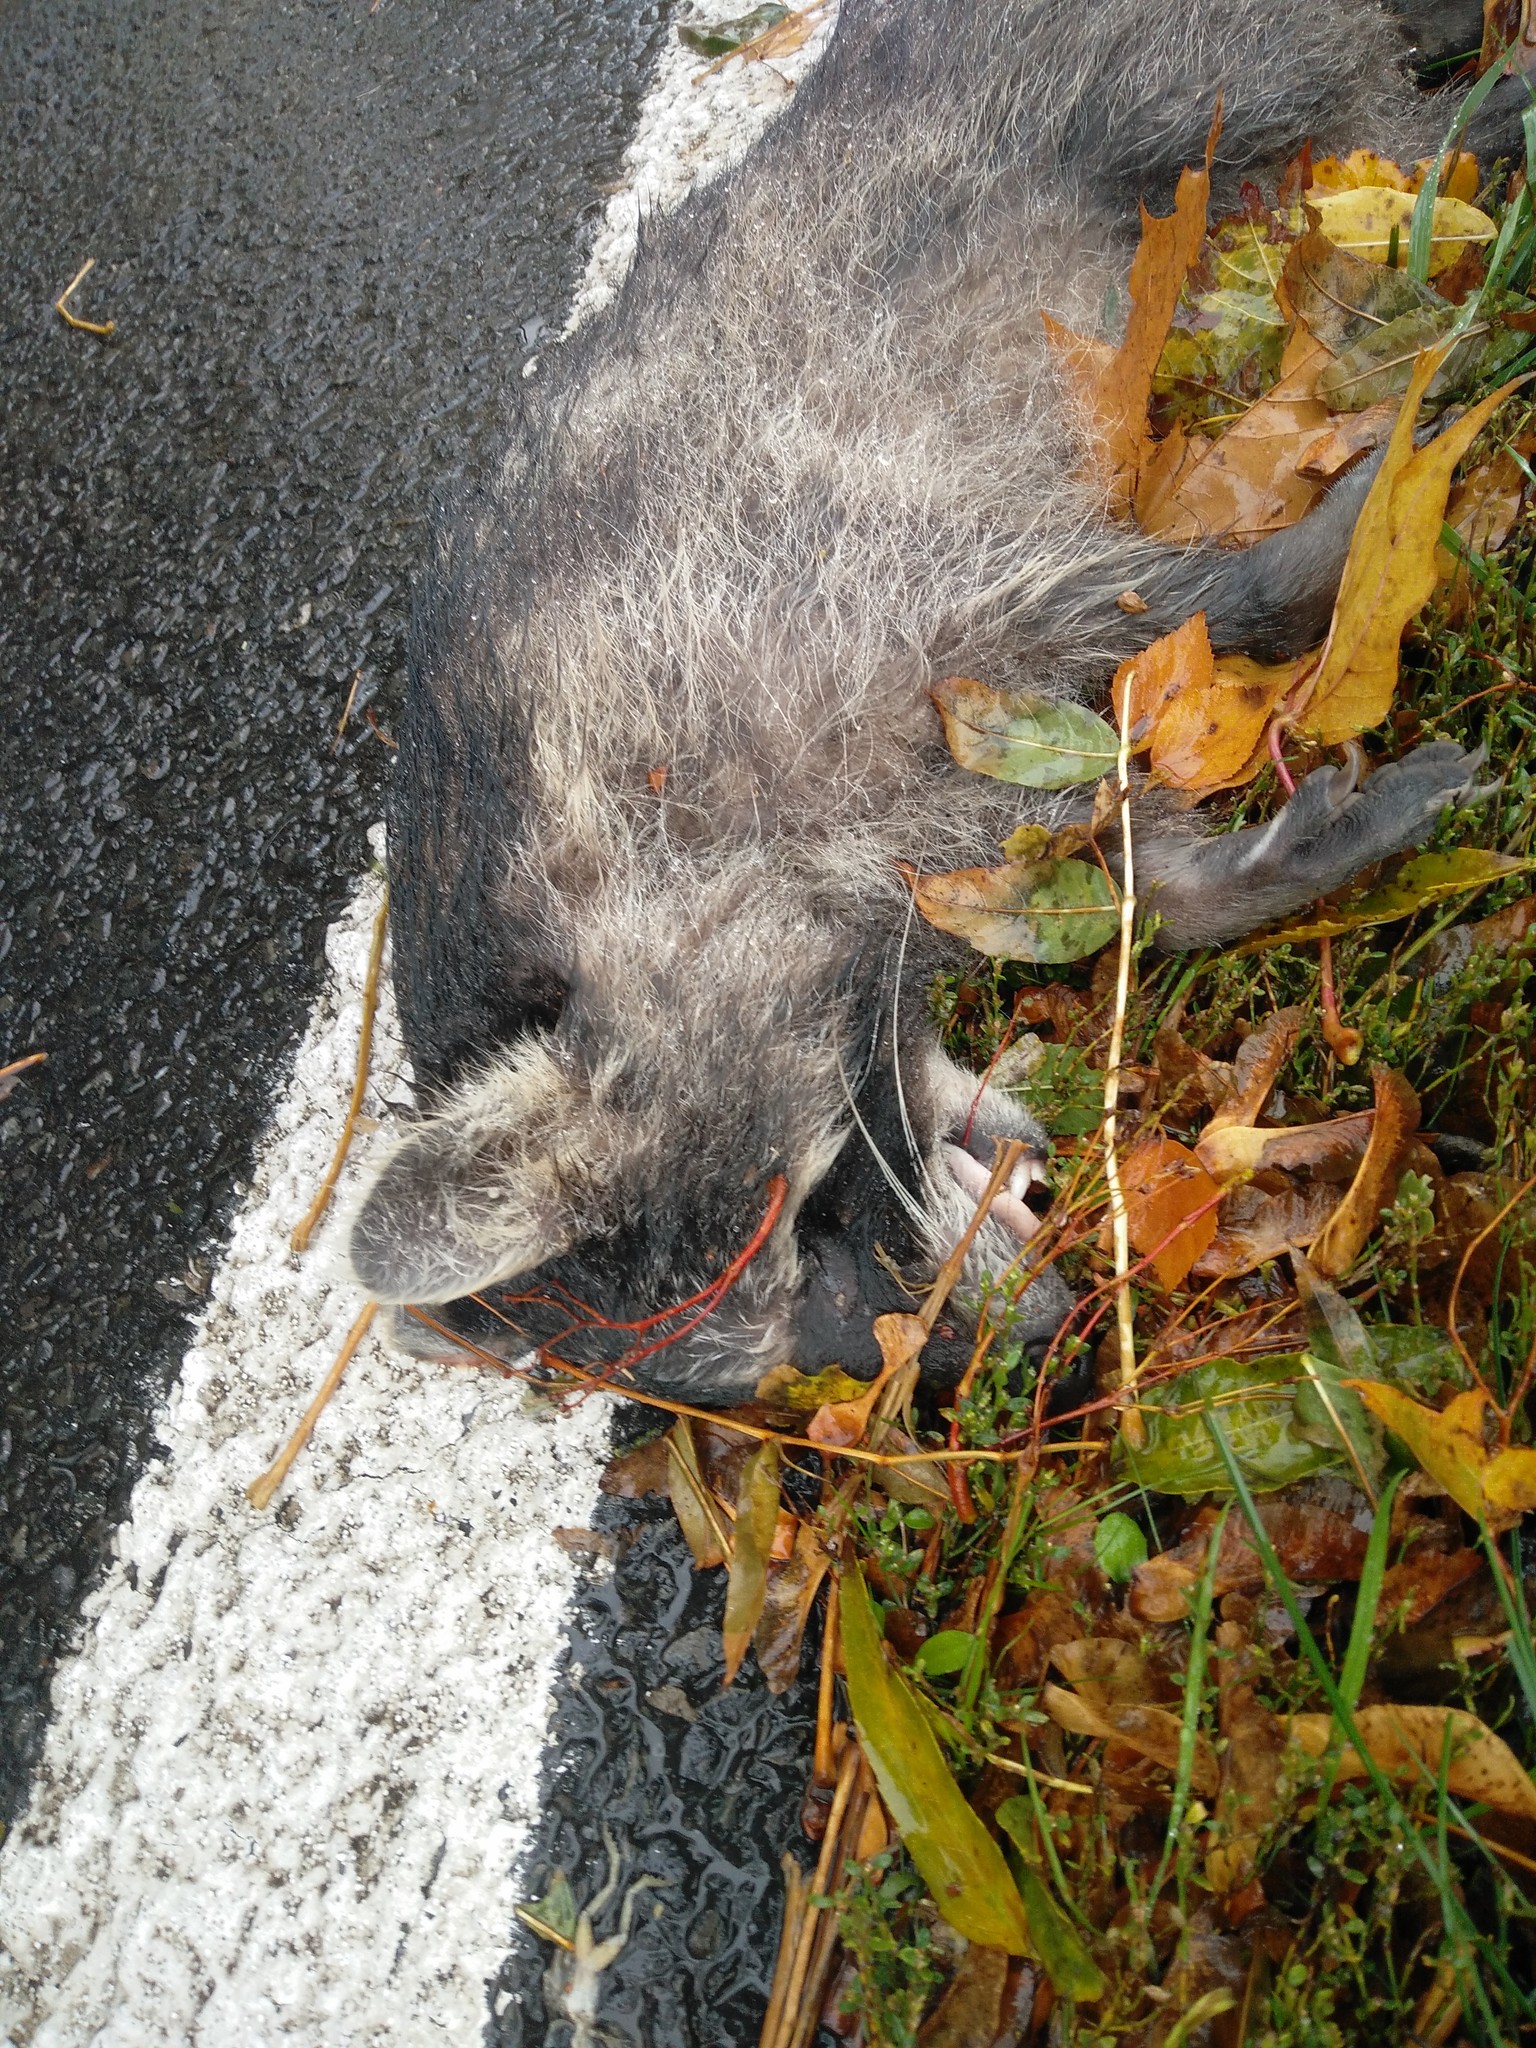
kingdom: Animalia
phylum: Chordata
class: Mammalia
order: Carnivora
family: Procyonidae
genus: Procyon
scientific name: Procyon lotor
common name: Raccoon
